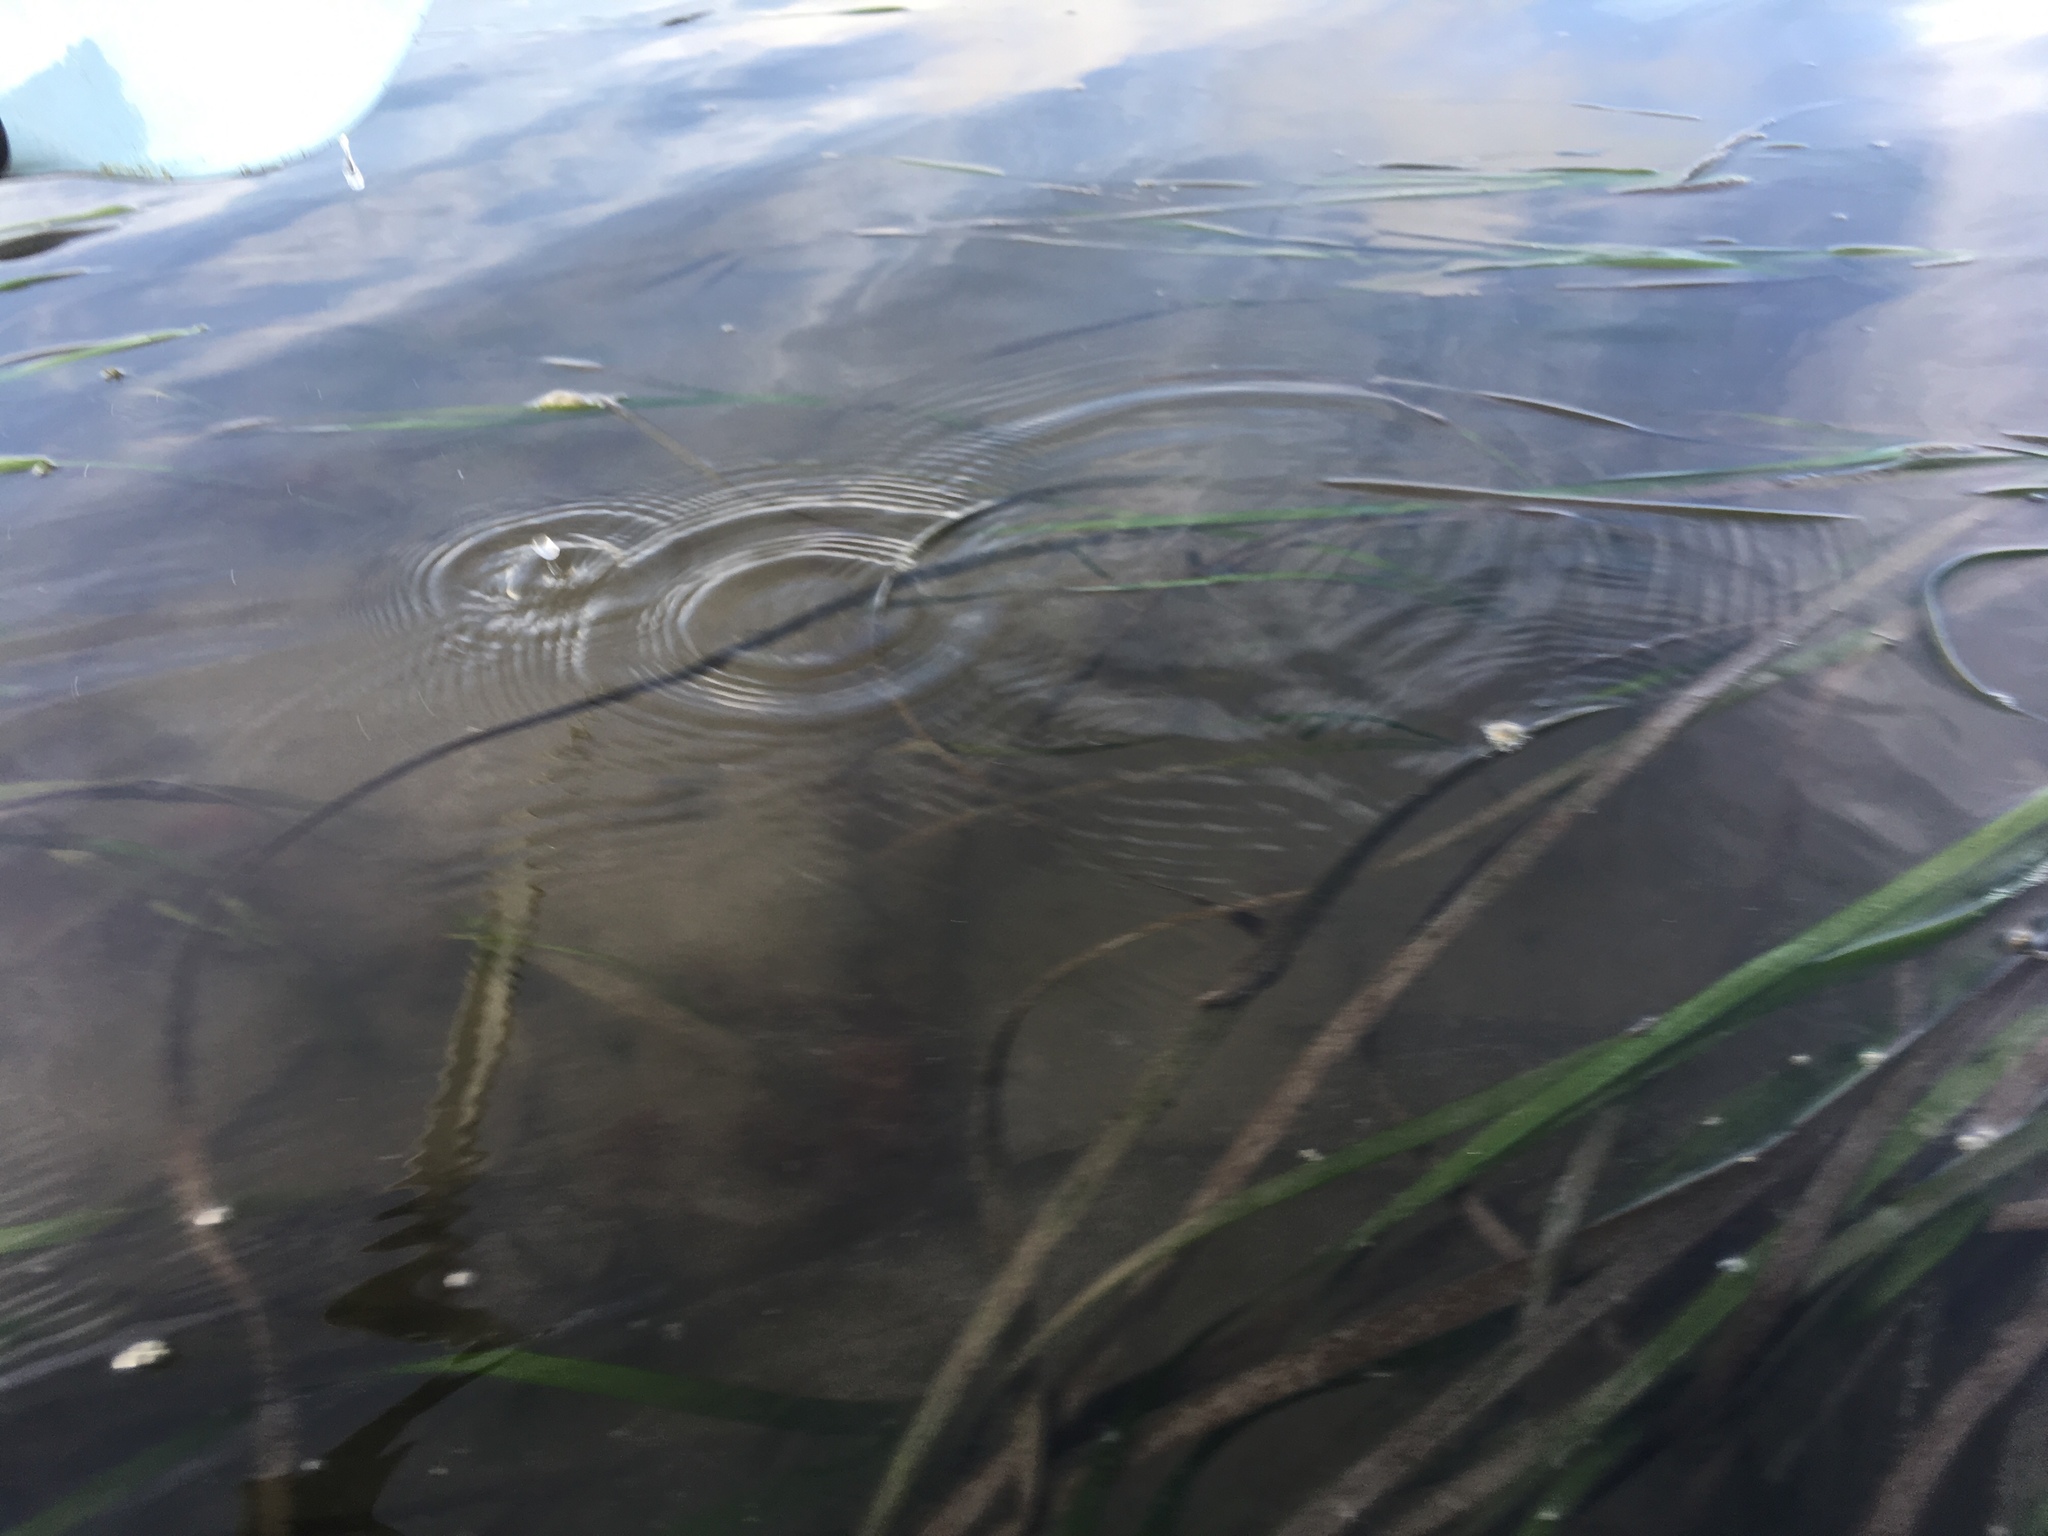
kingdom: Plantae
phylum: Tracheophyta
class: Liliopsida
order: Alismatales
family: Zosteraceae
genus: Zostera
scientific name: Zostera marina
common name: Eelgrass
